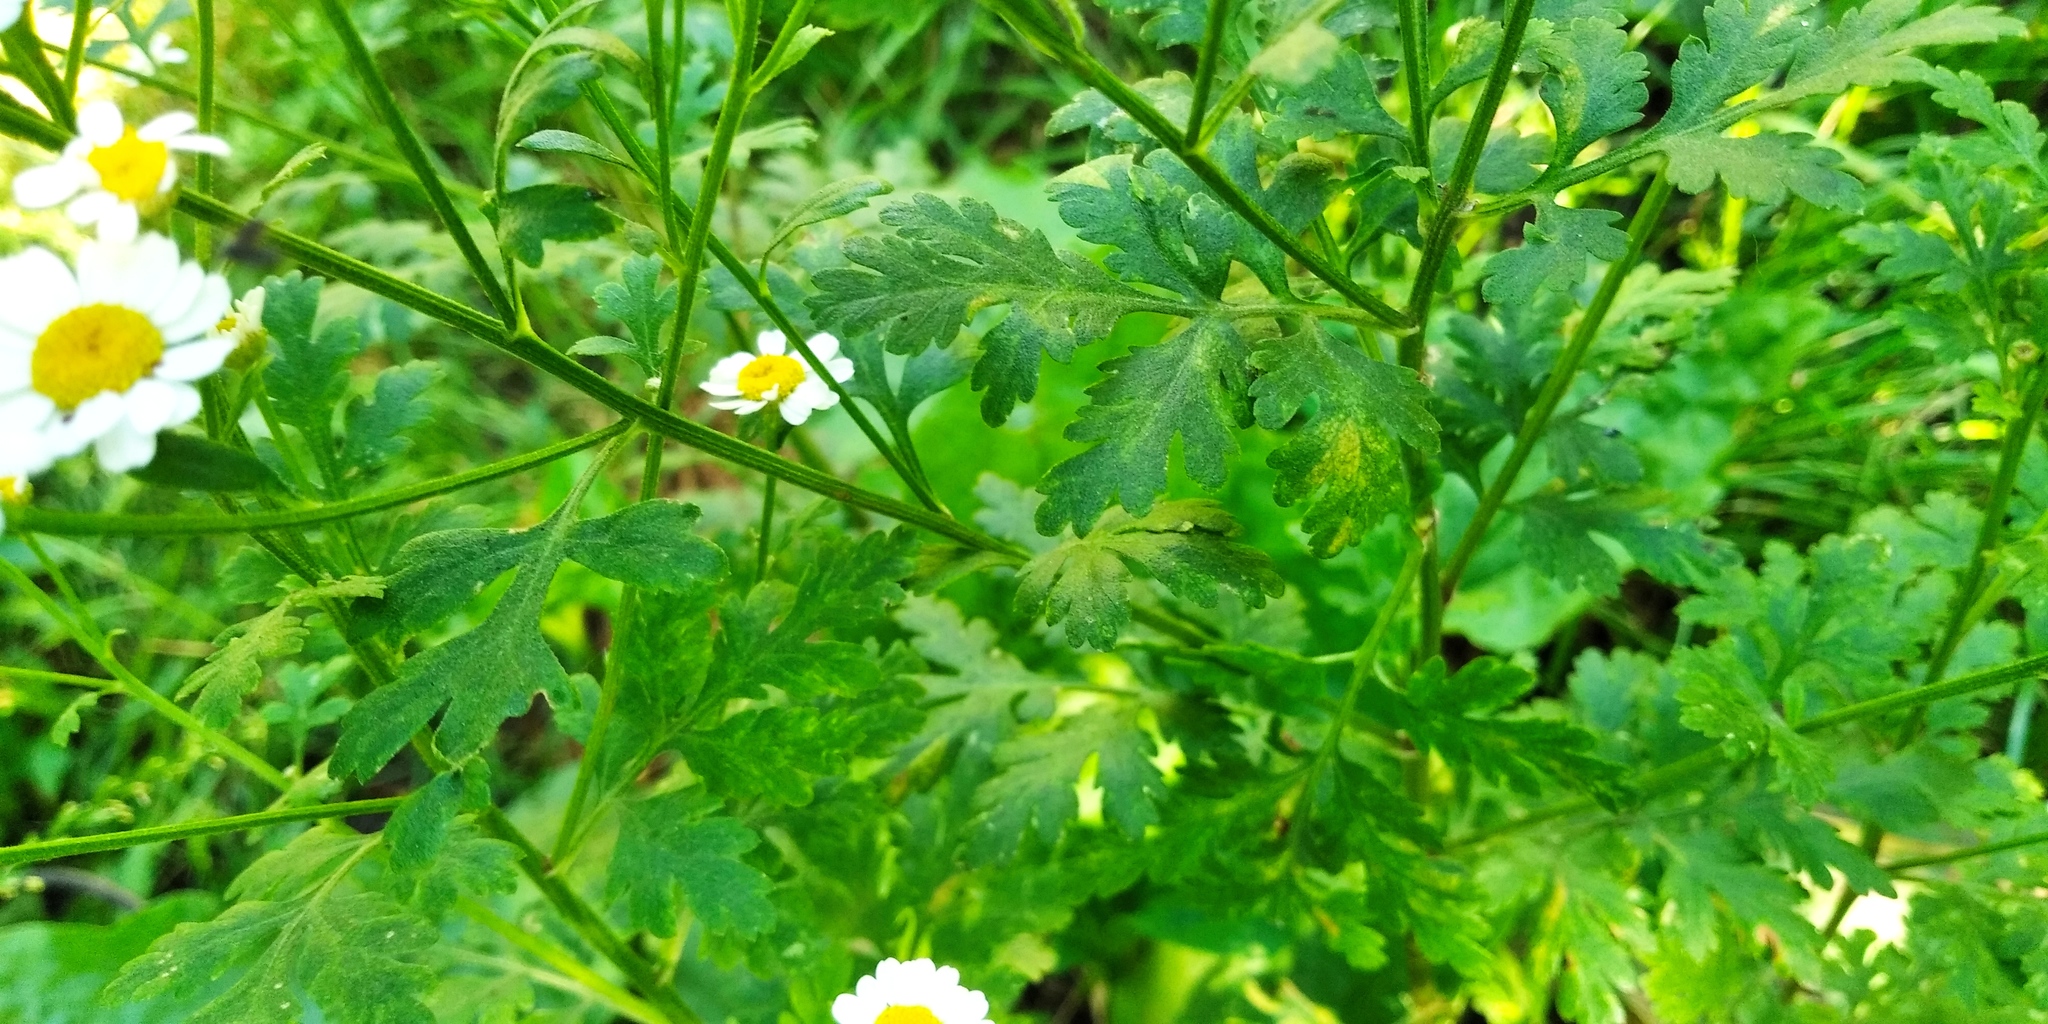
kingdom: Plantae
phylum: Tracheophyta
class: Magnoliopsida
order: Asterales
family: Asteraceae
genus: Tanacetum
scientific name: Tanacetum parthenium
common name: Feverfew
